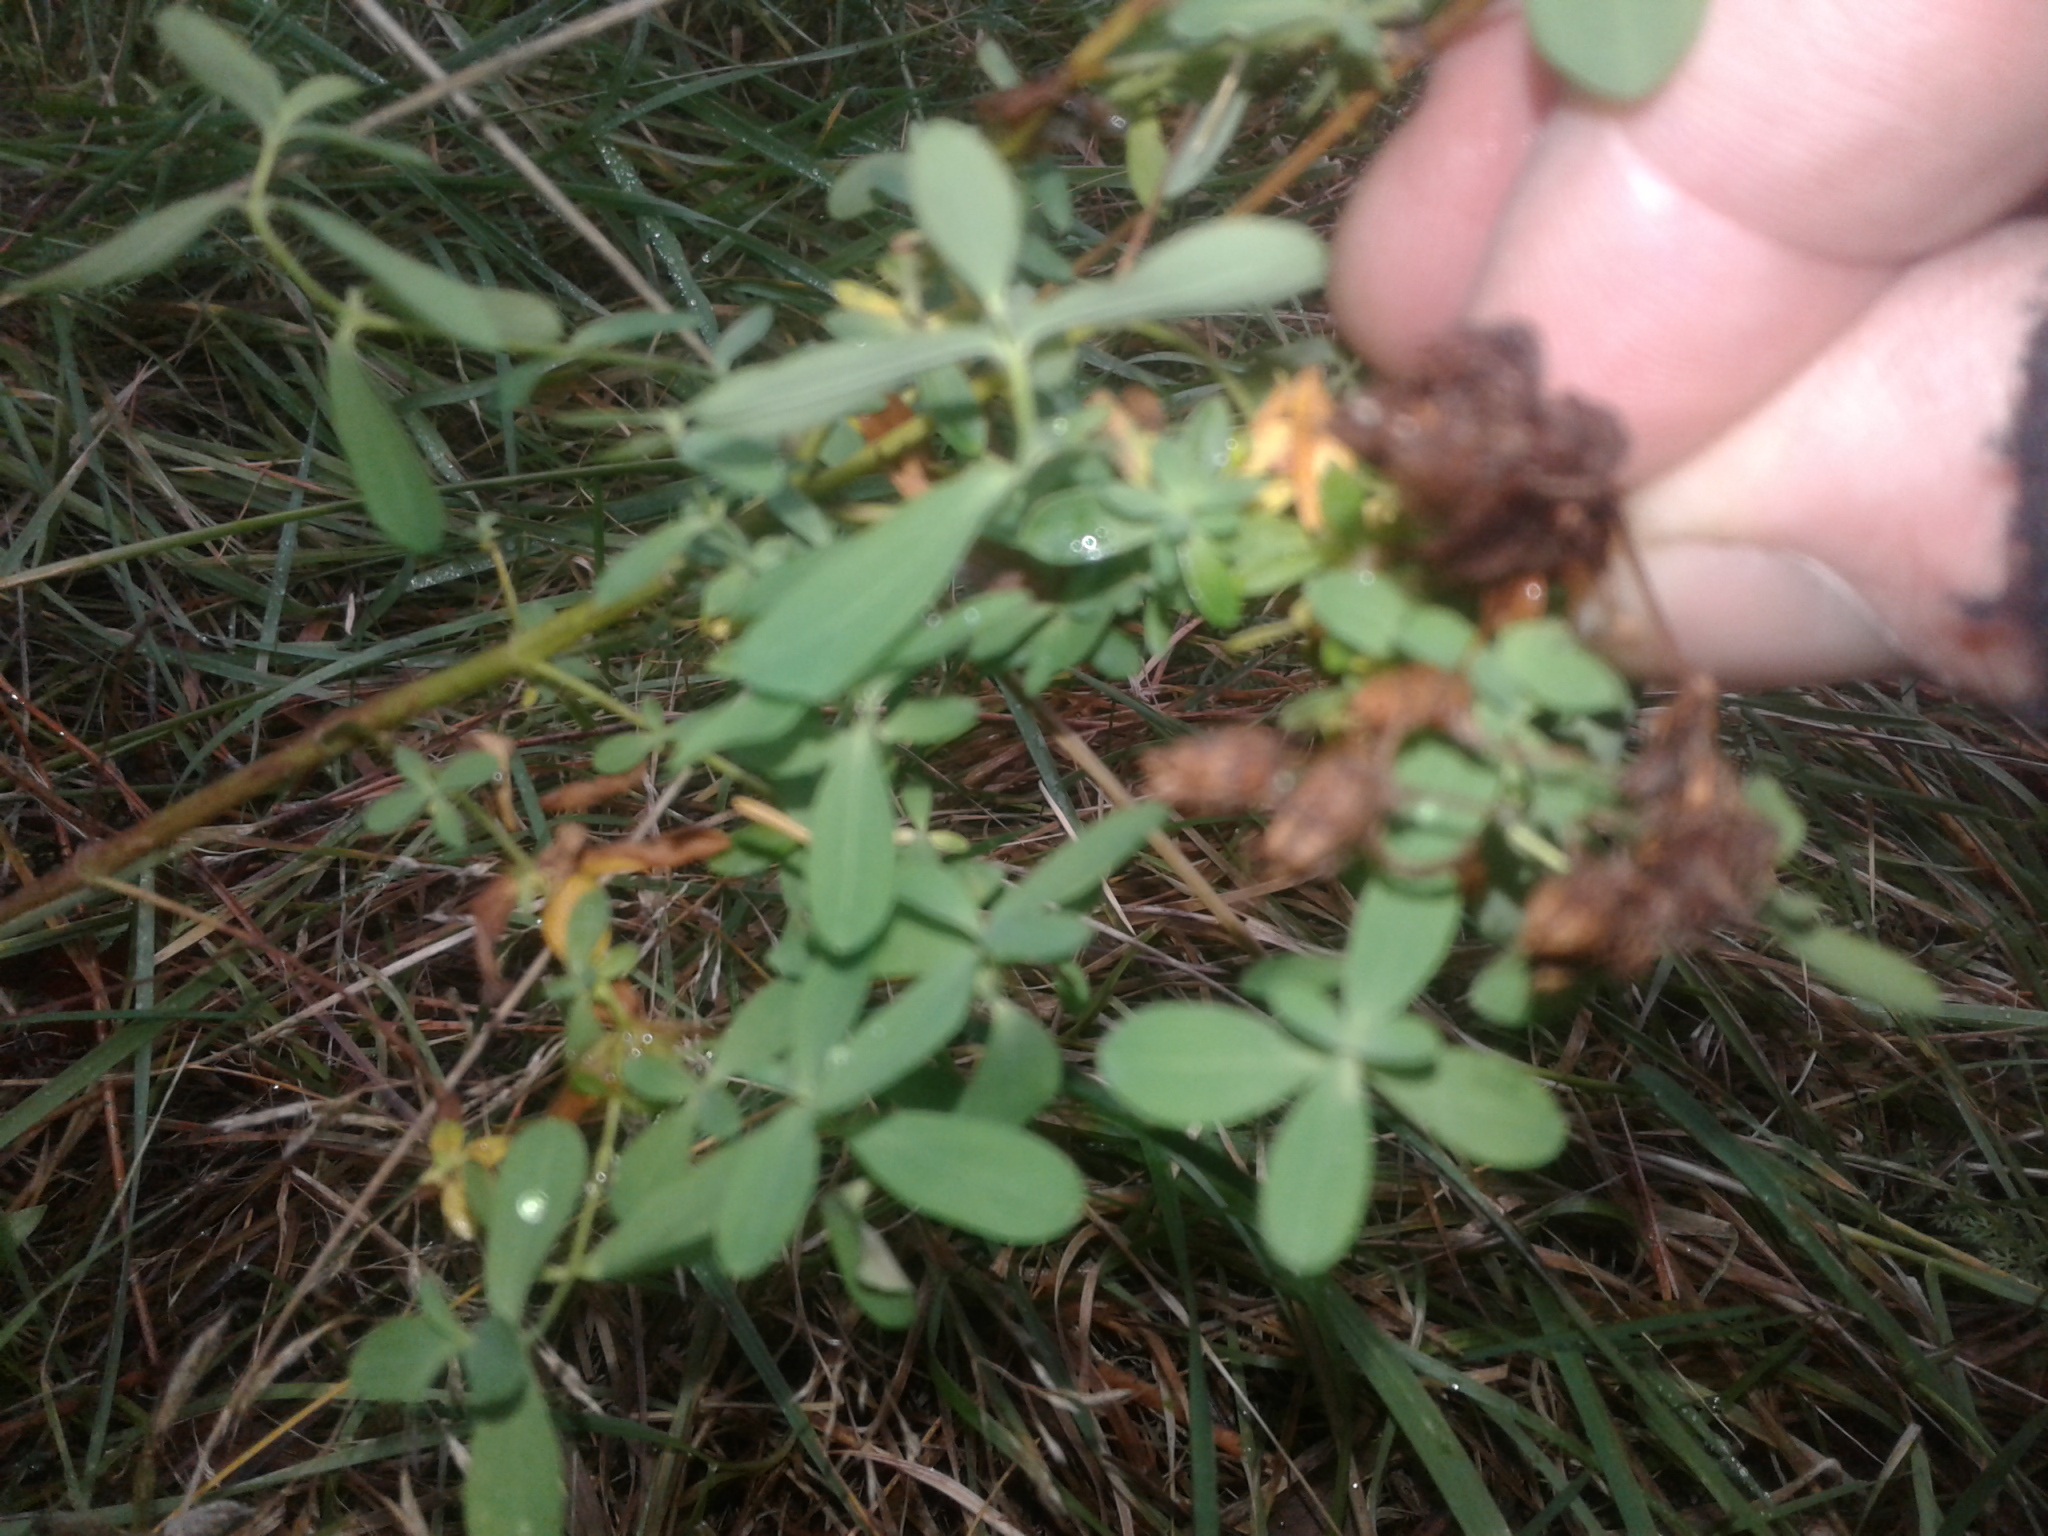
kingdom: Plantae
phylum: Tracheophyta
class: Magnoliopsida
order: Malpighiales
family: Hypericaceae
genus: Hypericum
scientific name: Hypericum perforatum
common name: Common st. johnswort
